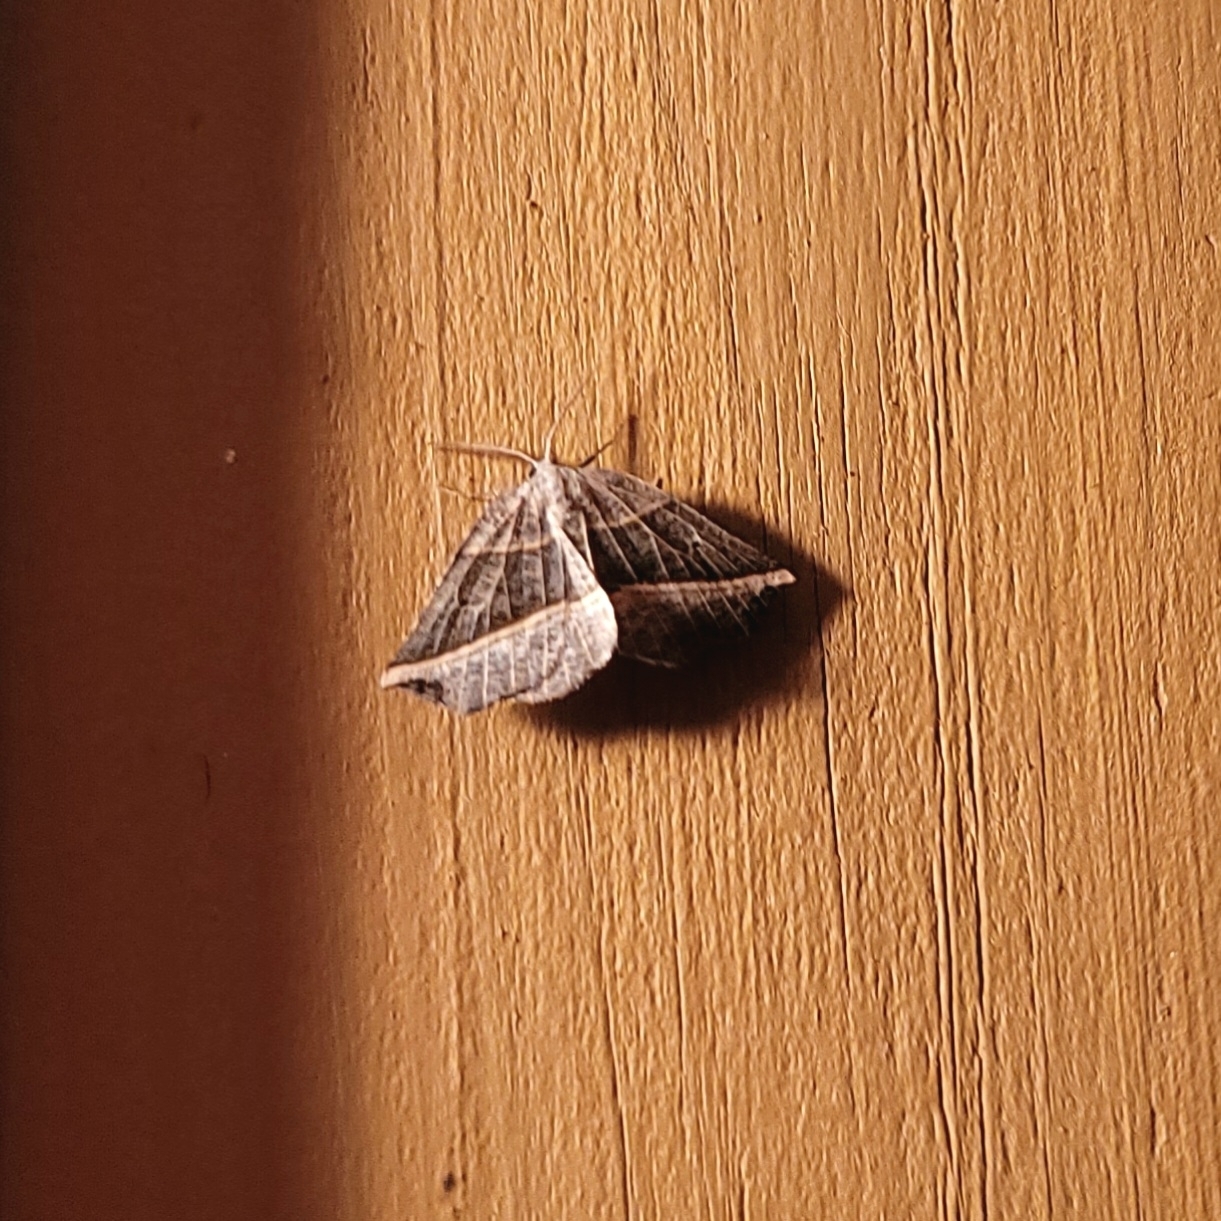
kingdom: Animalia
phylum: Arthropoda
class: Insecta
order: Lepidoptera
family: Geometridae
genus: Metanema
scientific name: Metanema determinata
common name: Dark metanema
